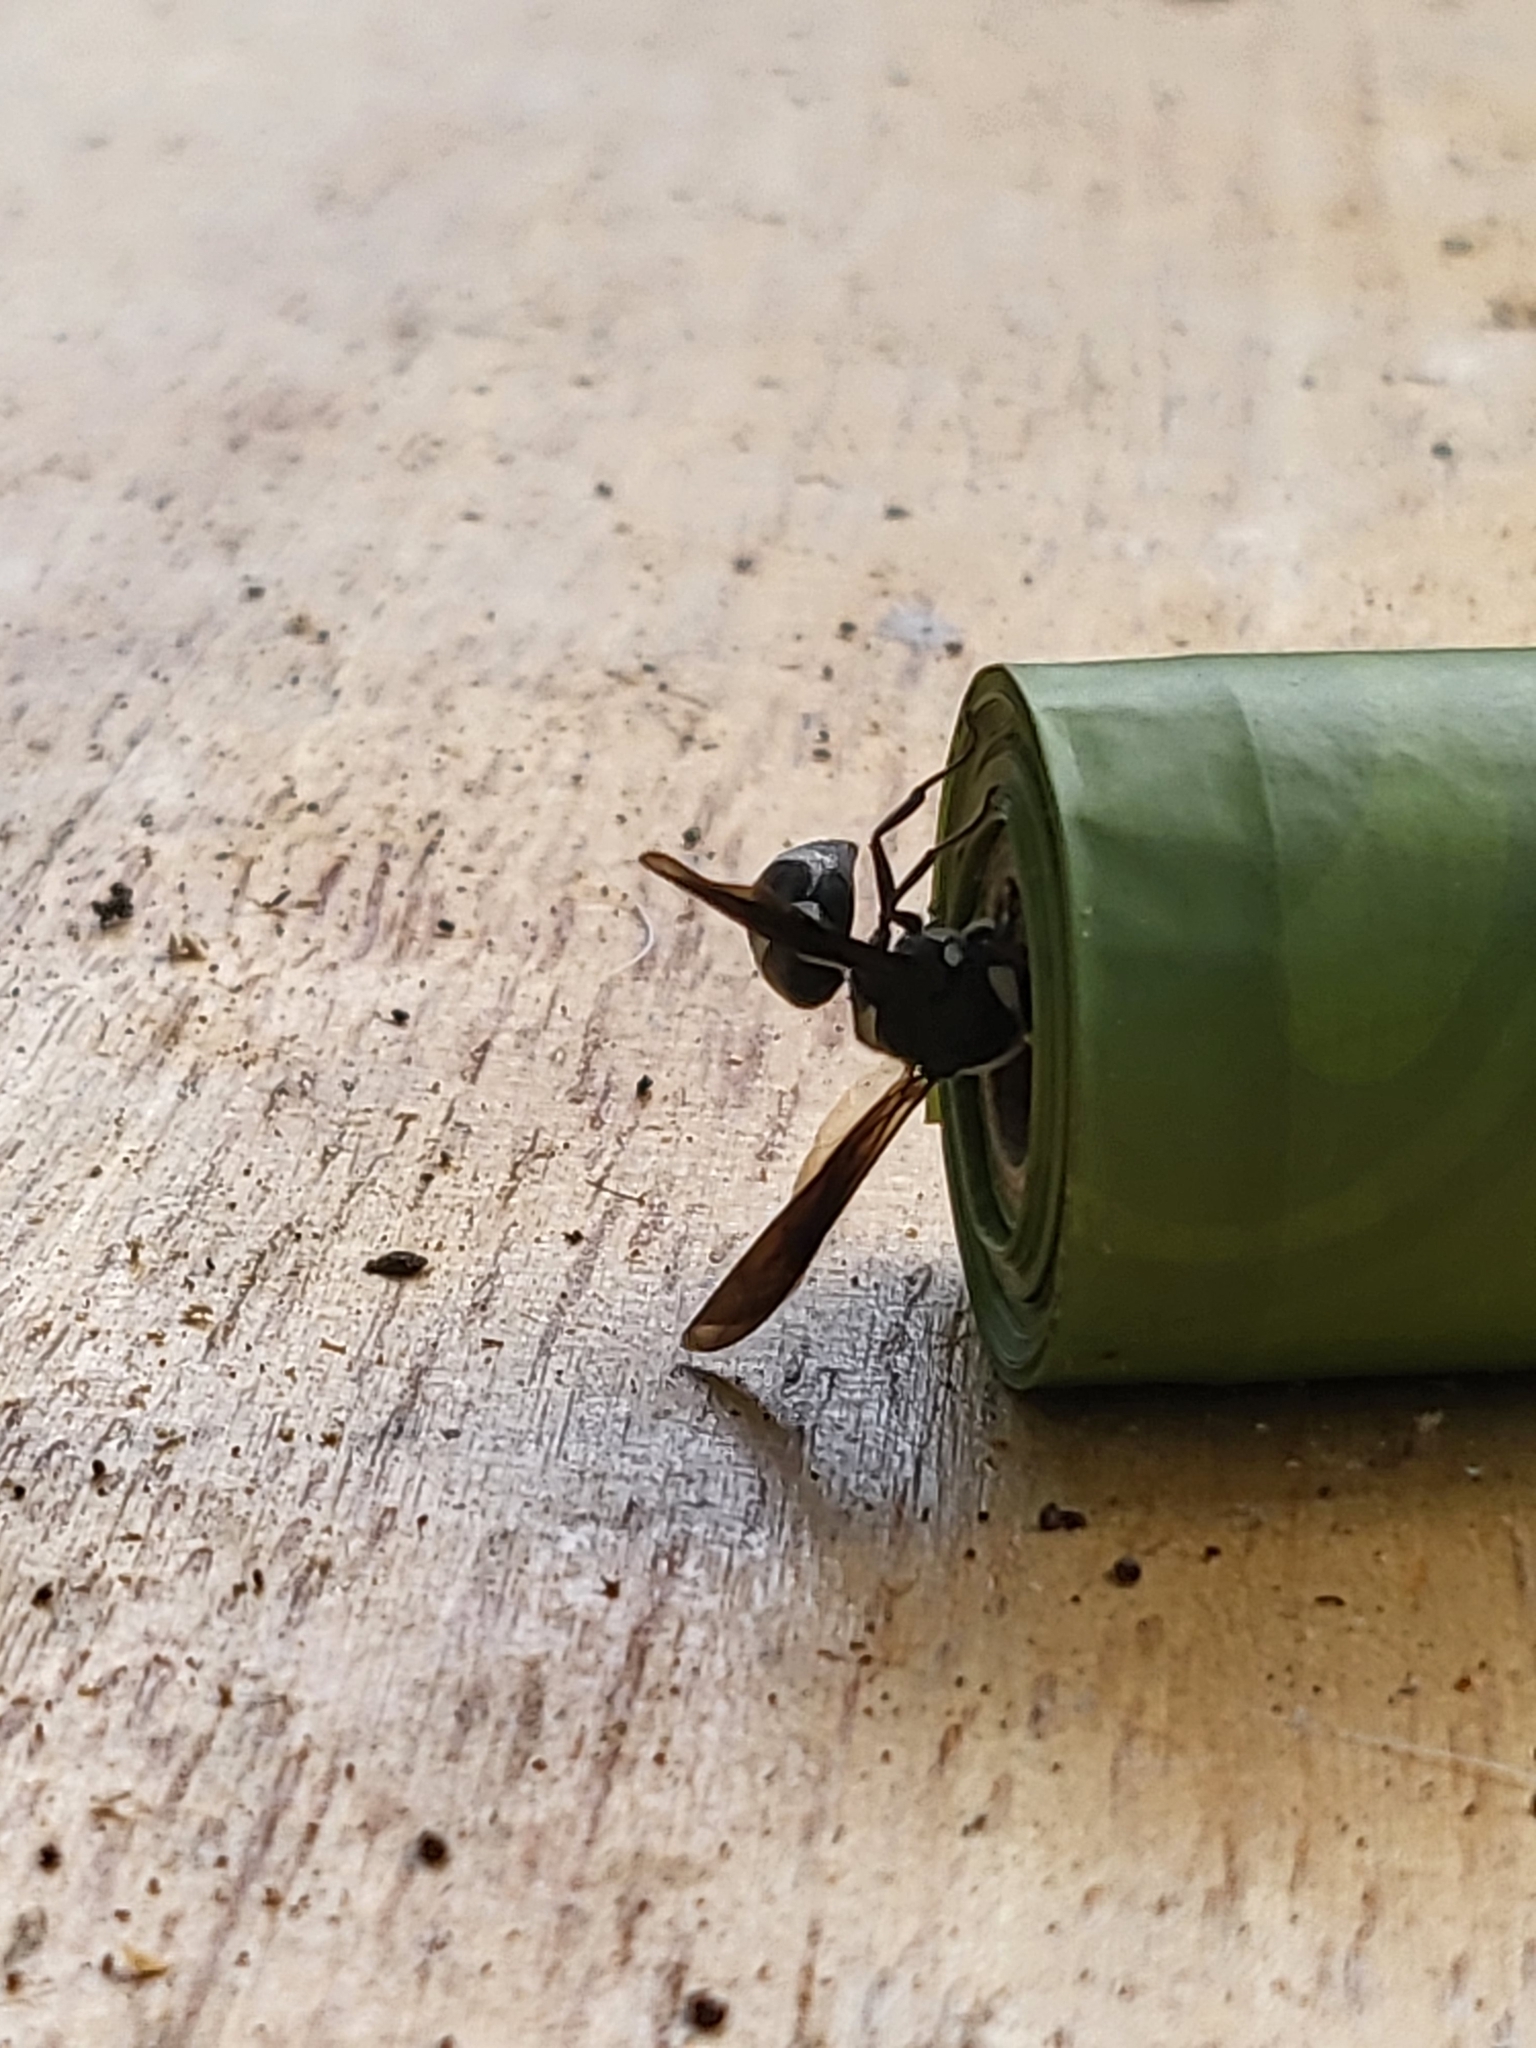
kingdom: Animalia
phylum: Arthropoda
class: Insecta
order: Hymenoptera
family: Eumenidae
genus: Euodynerus
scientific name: Euodynerus megaera
